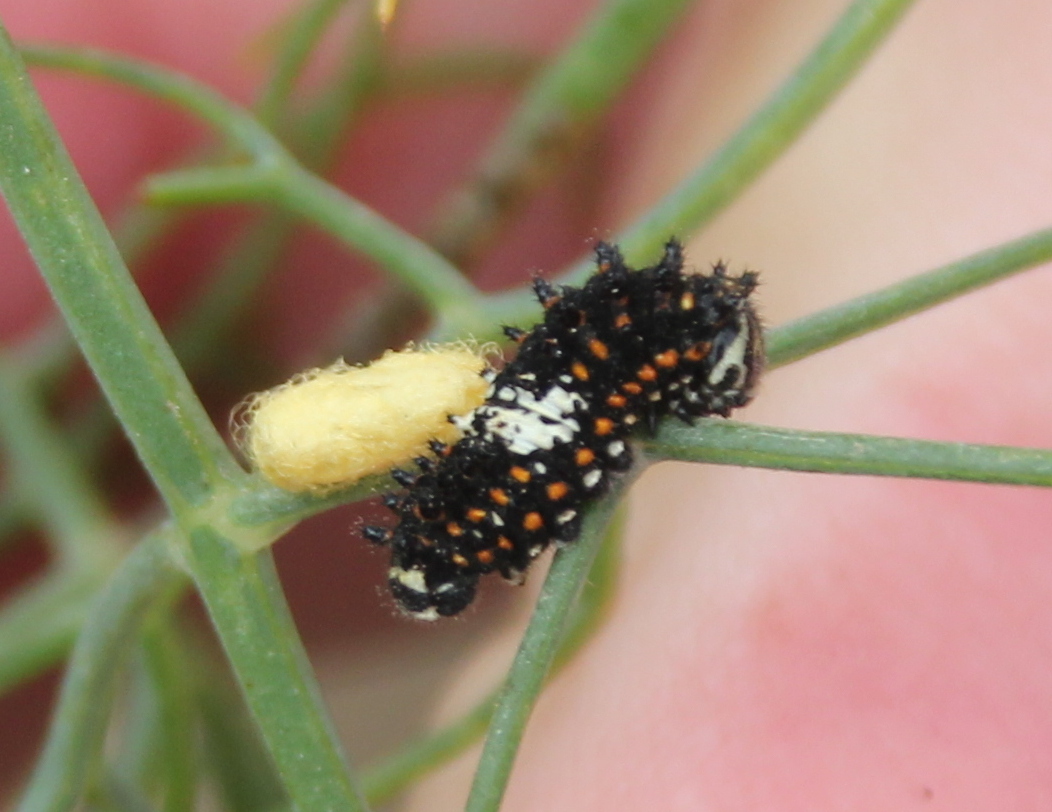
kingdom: Animalia
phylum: Arthropoda
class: Insecta
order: Lepidoptera
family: Papilionidae
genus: Papilio
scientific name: Papilio zelicaon
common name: Anise swallowtail
